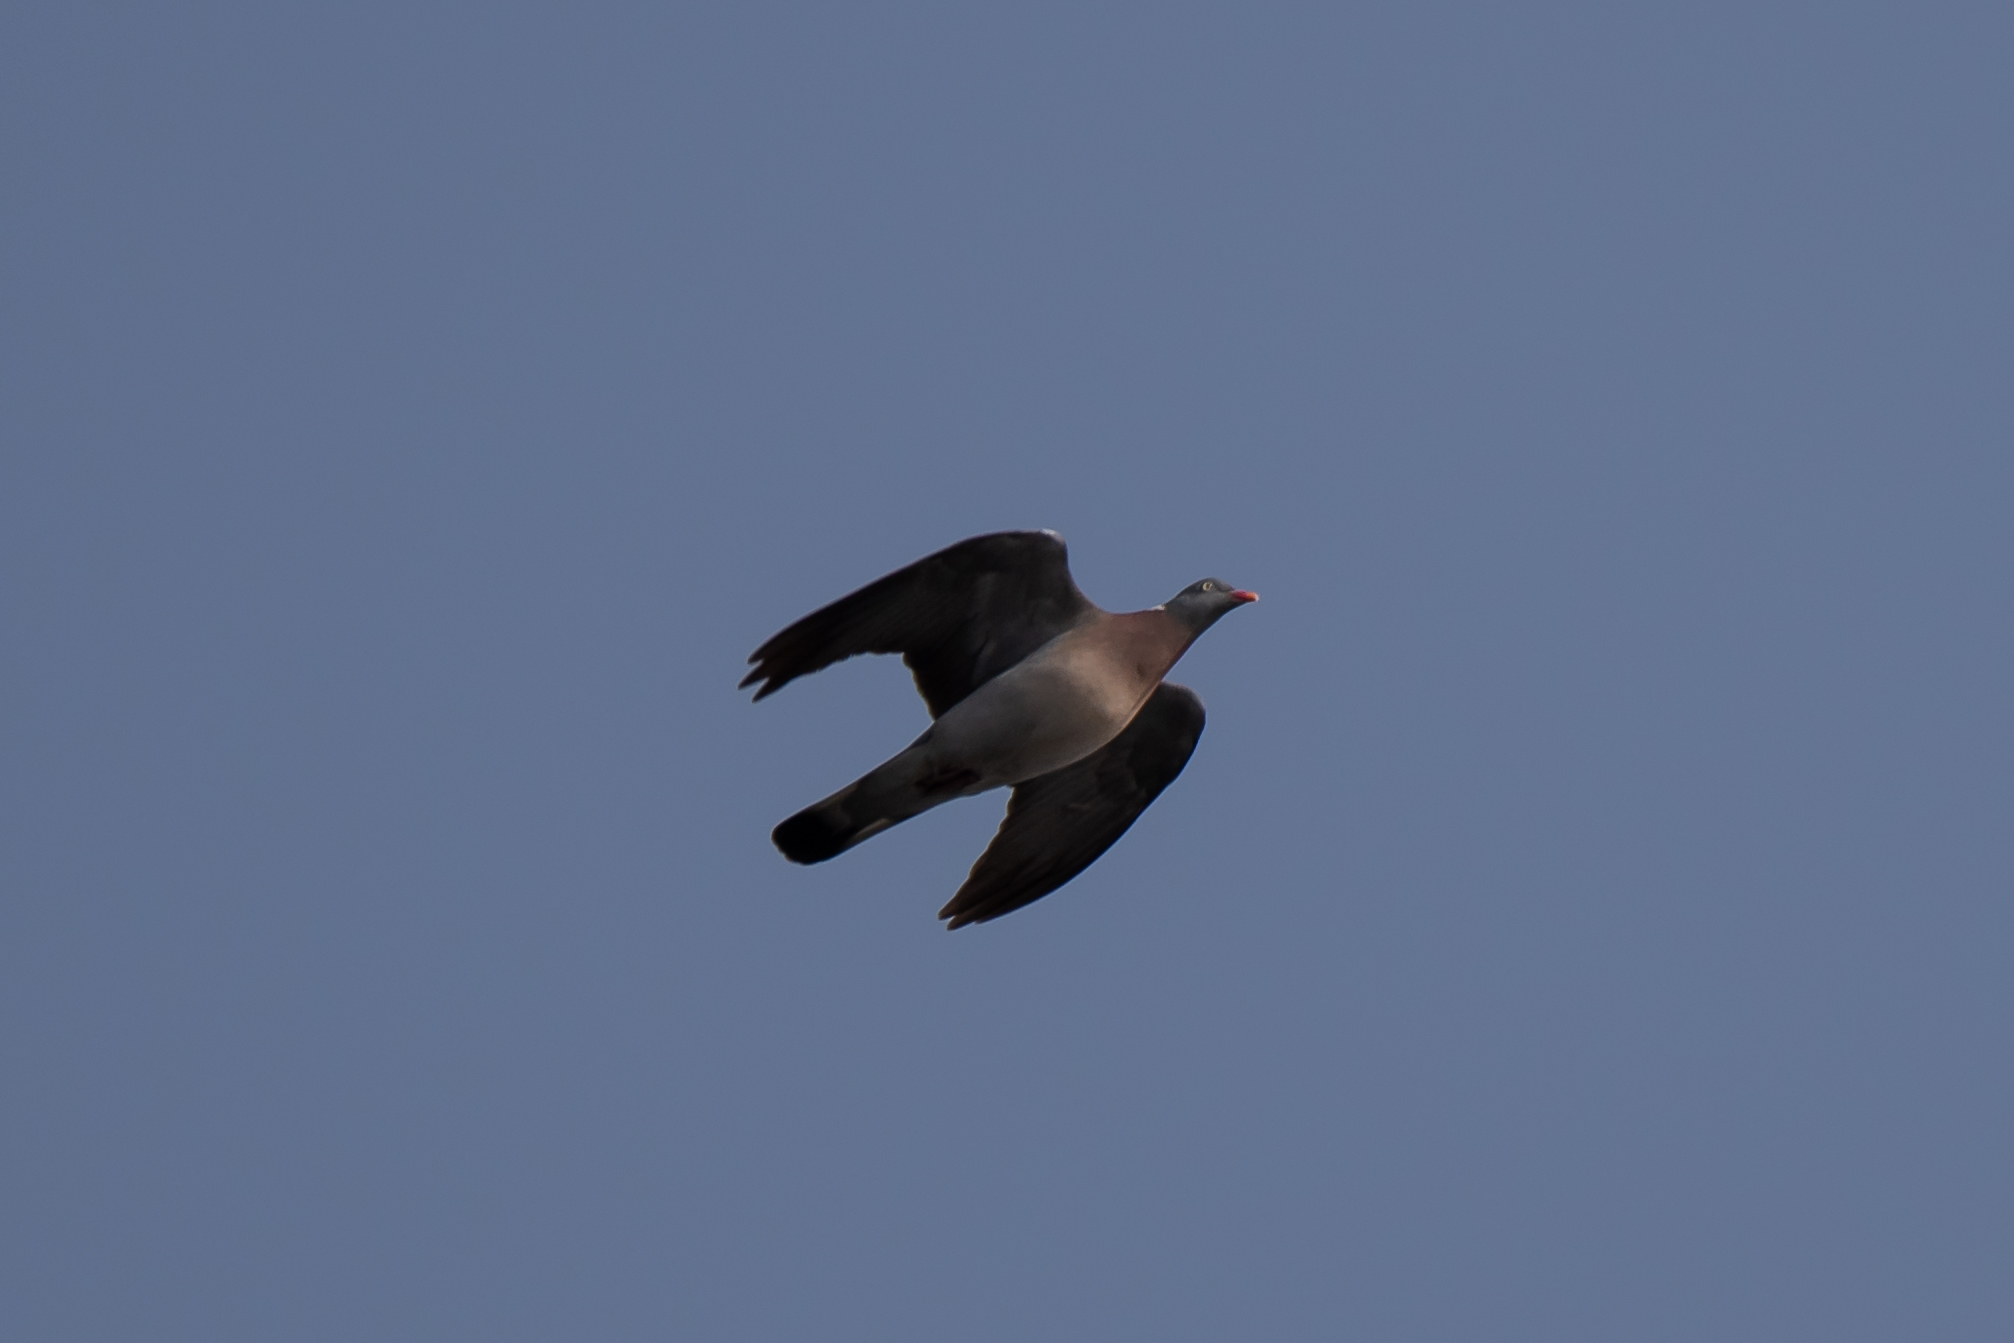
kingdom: Animalia
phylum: Chordata
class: Aves
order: Columbiformes
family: Columbidae
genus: Columba
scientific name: Columba palumbus
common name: Common wood pigeon
